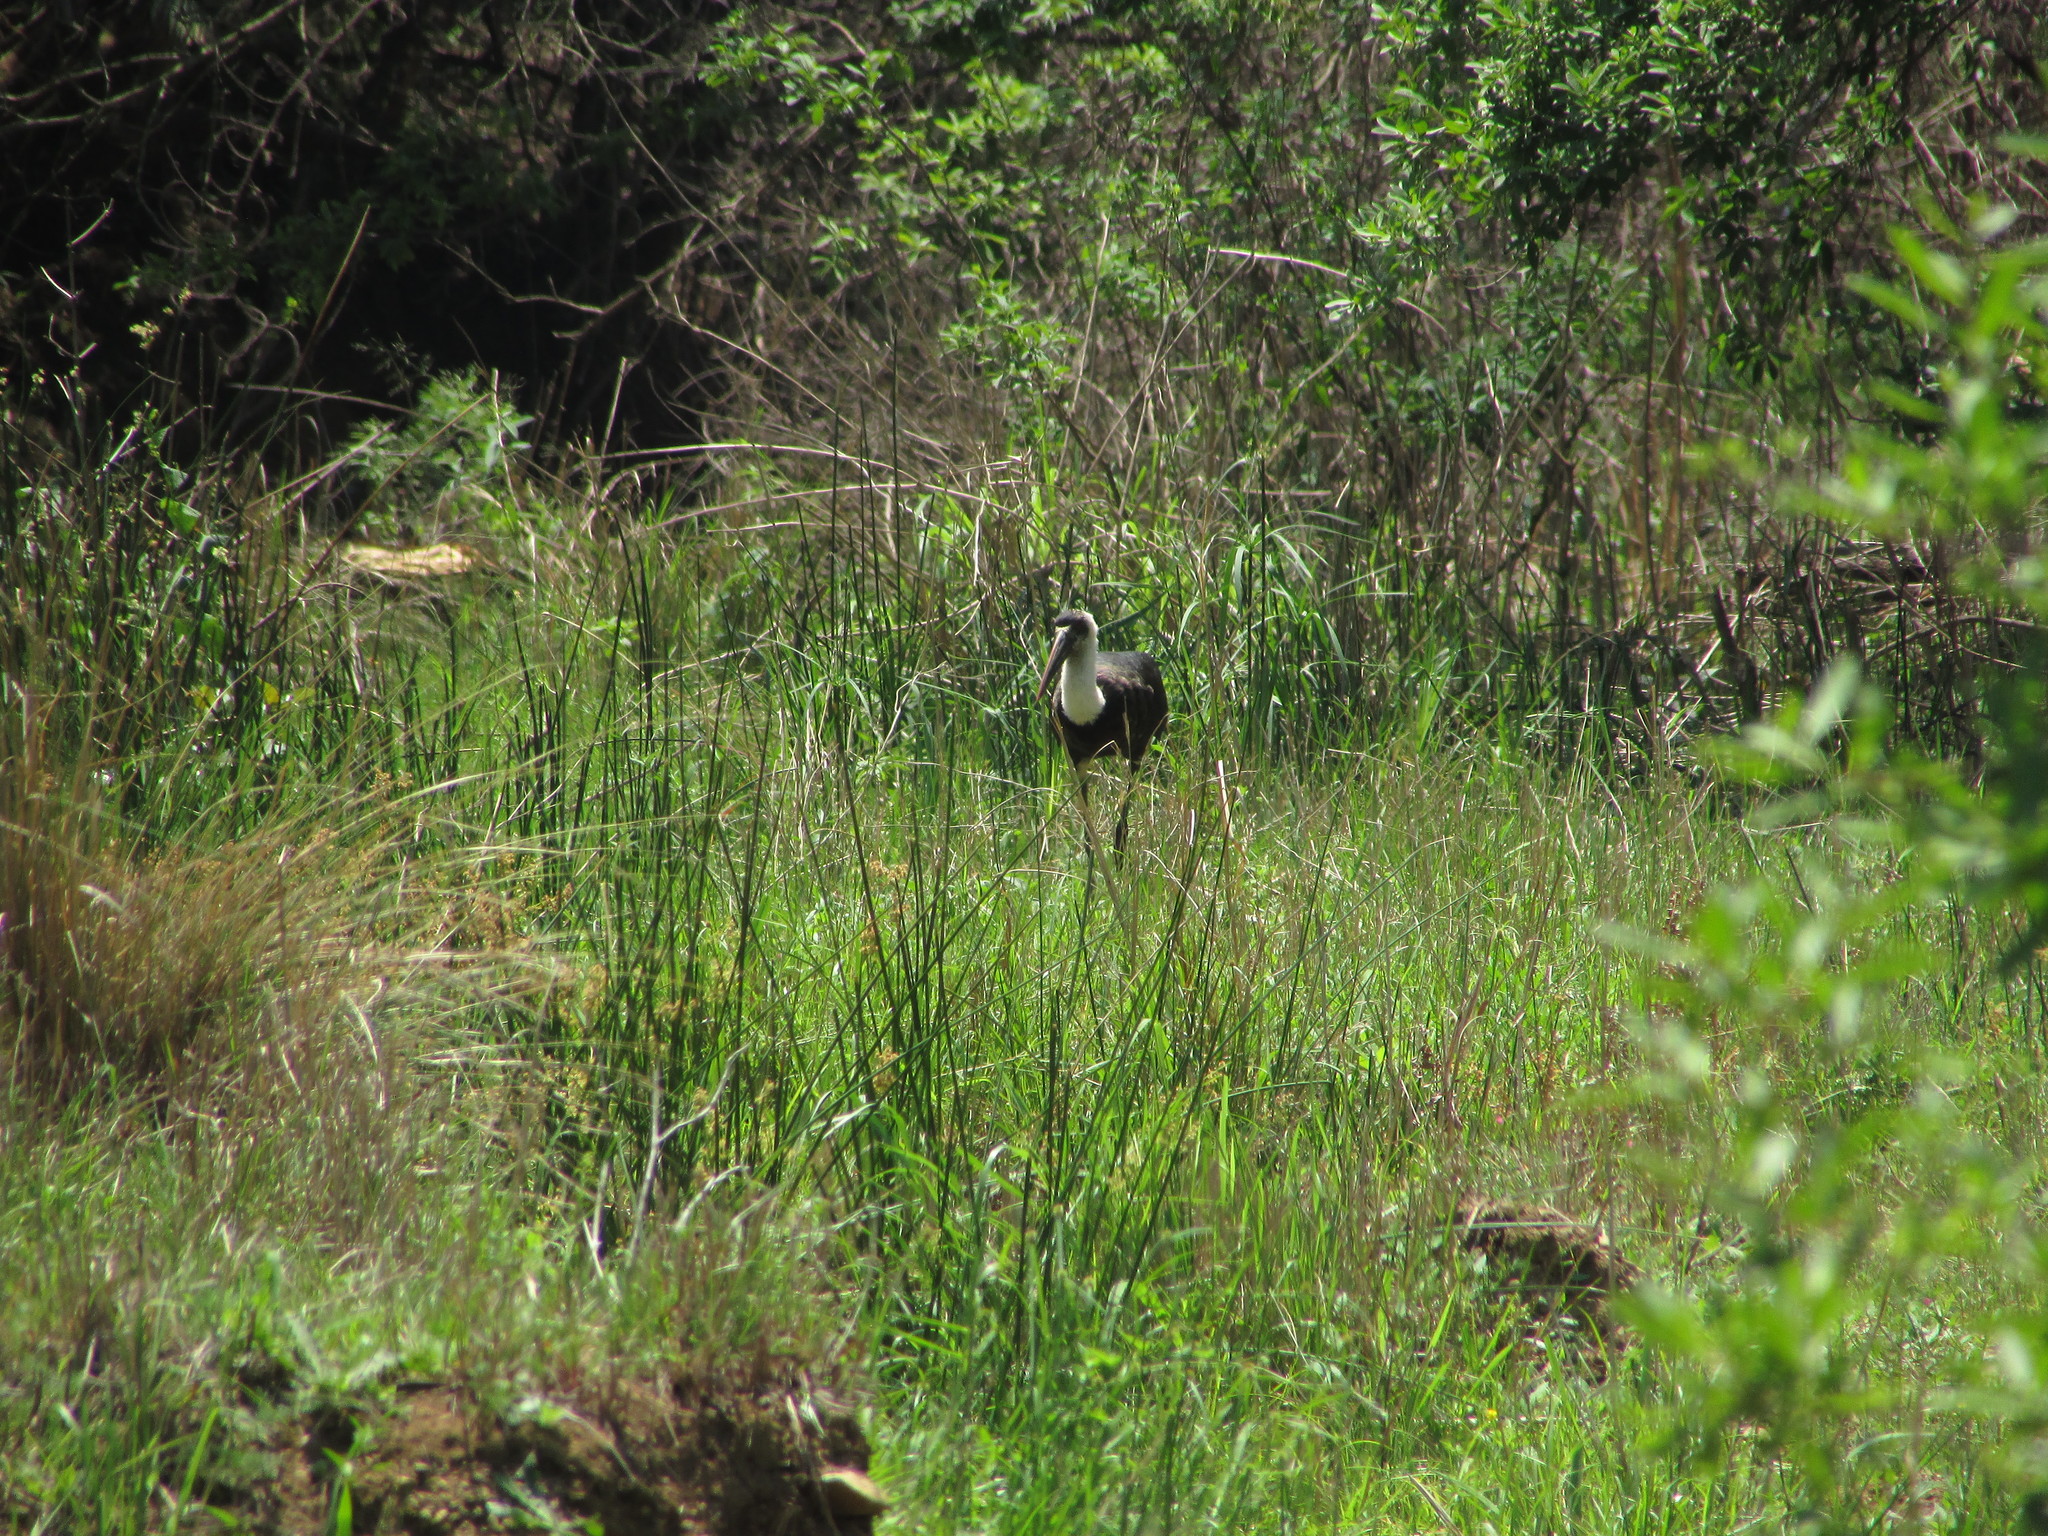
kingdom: Animalia
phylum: Chordata
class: Aves
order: Ciconiiformes
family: Ciconiidae
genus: Ciconia
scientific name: Ciconia microscelis
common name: African woollyneck
